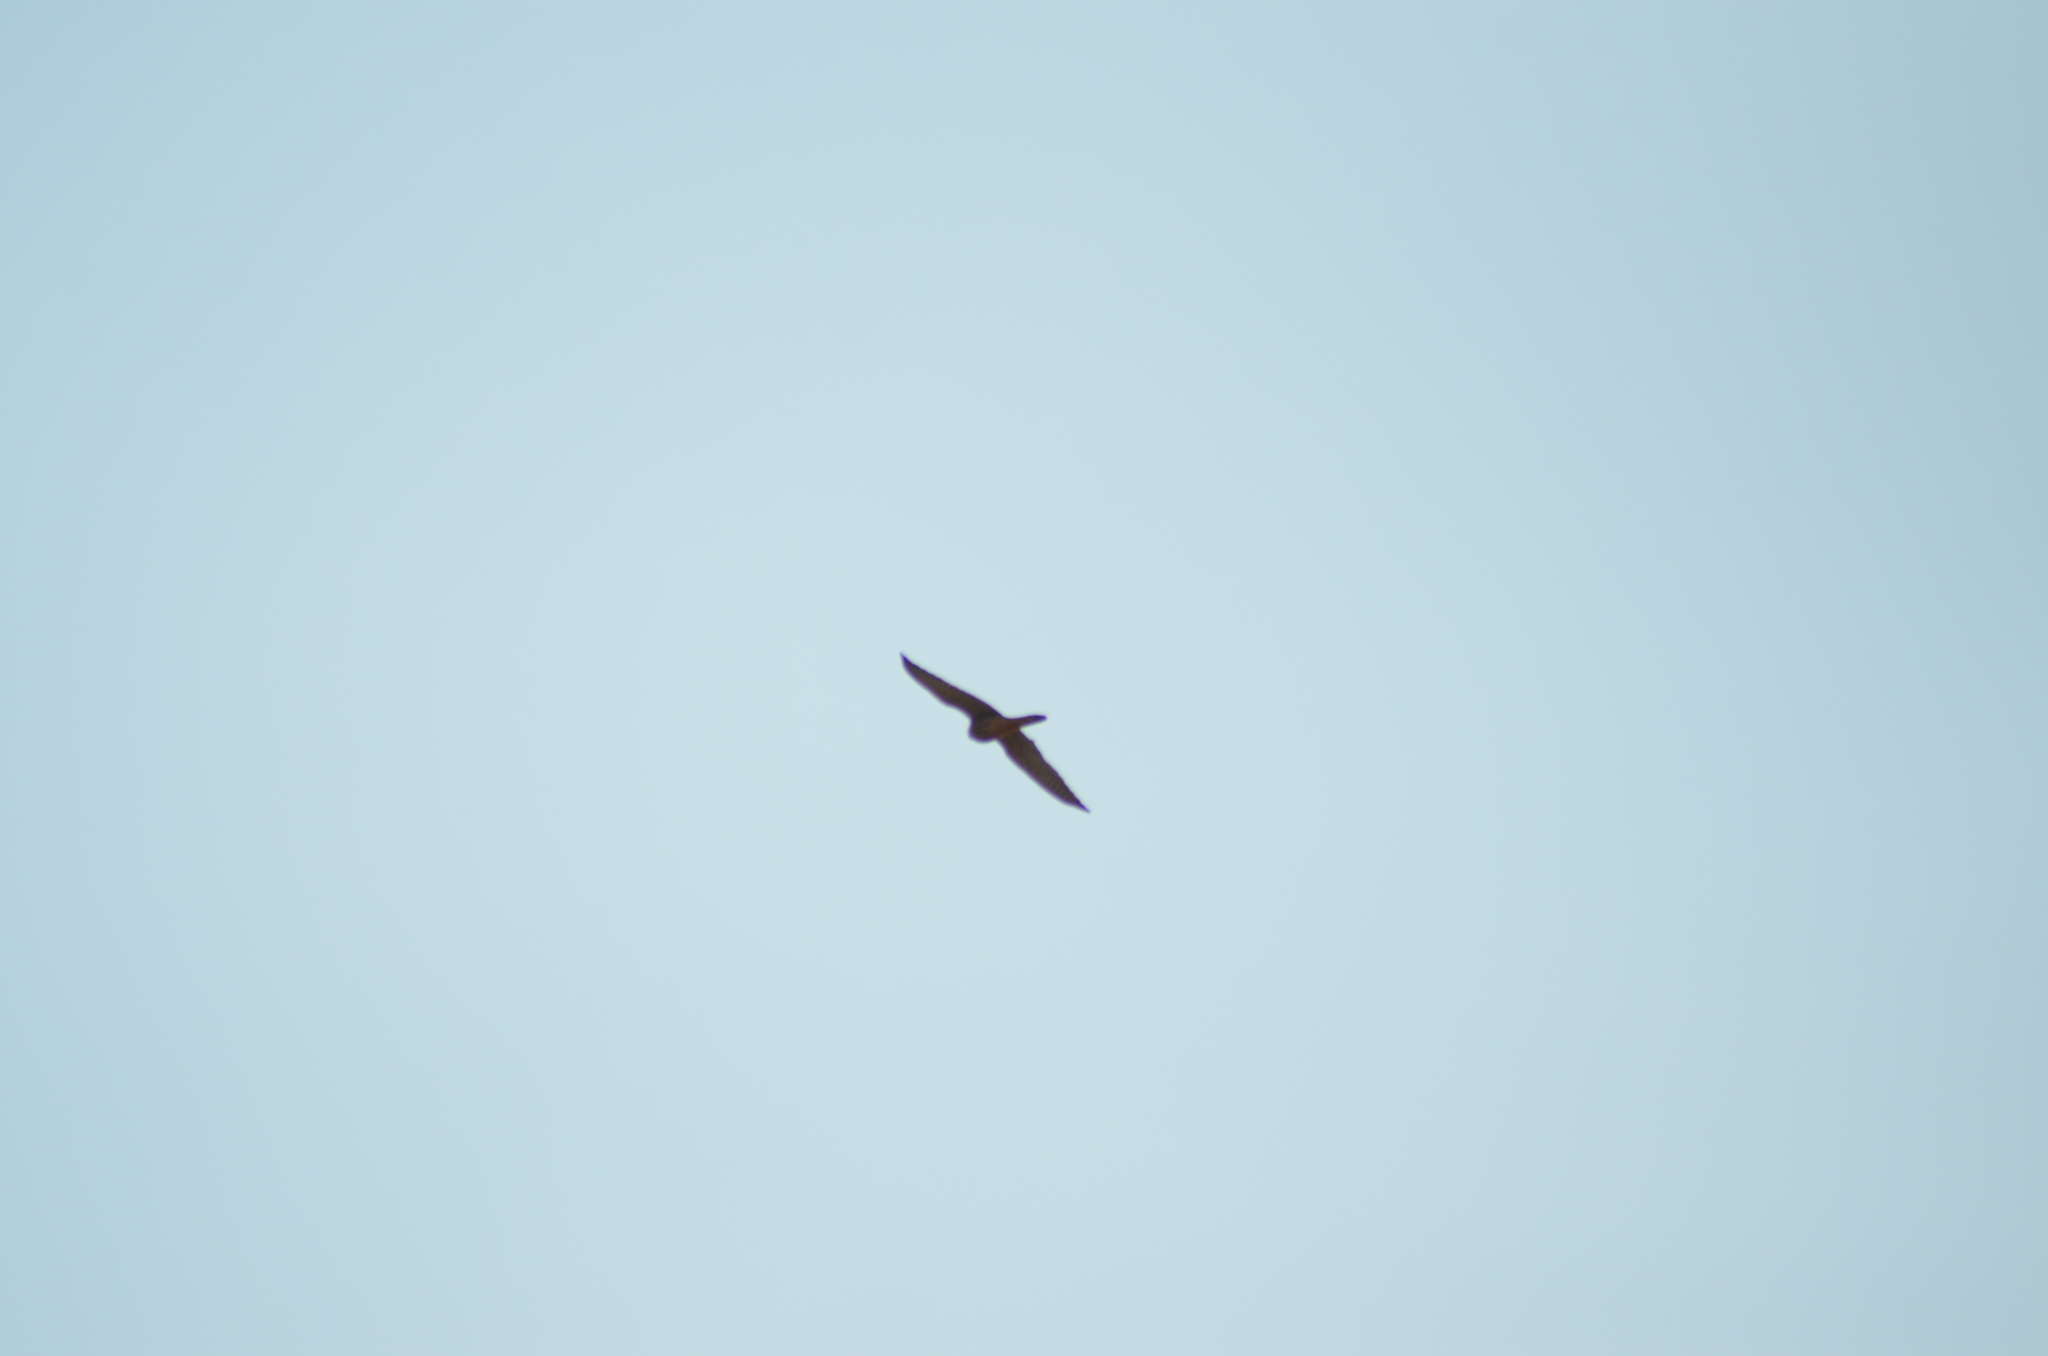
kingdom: Animalia
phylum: Chordata
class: Aves
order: Falconiformes
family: Falconidae
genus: Falco
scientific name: Falco tinnunculus
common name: Common kestrel
